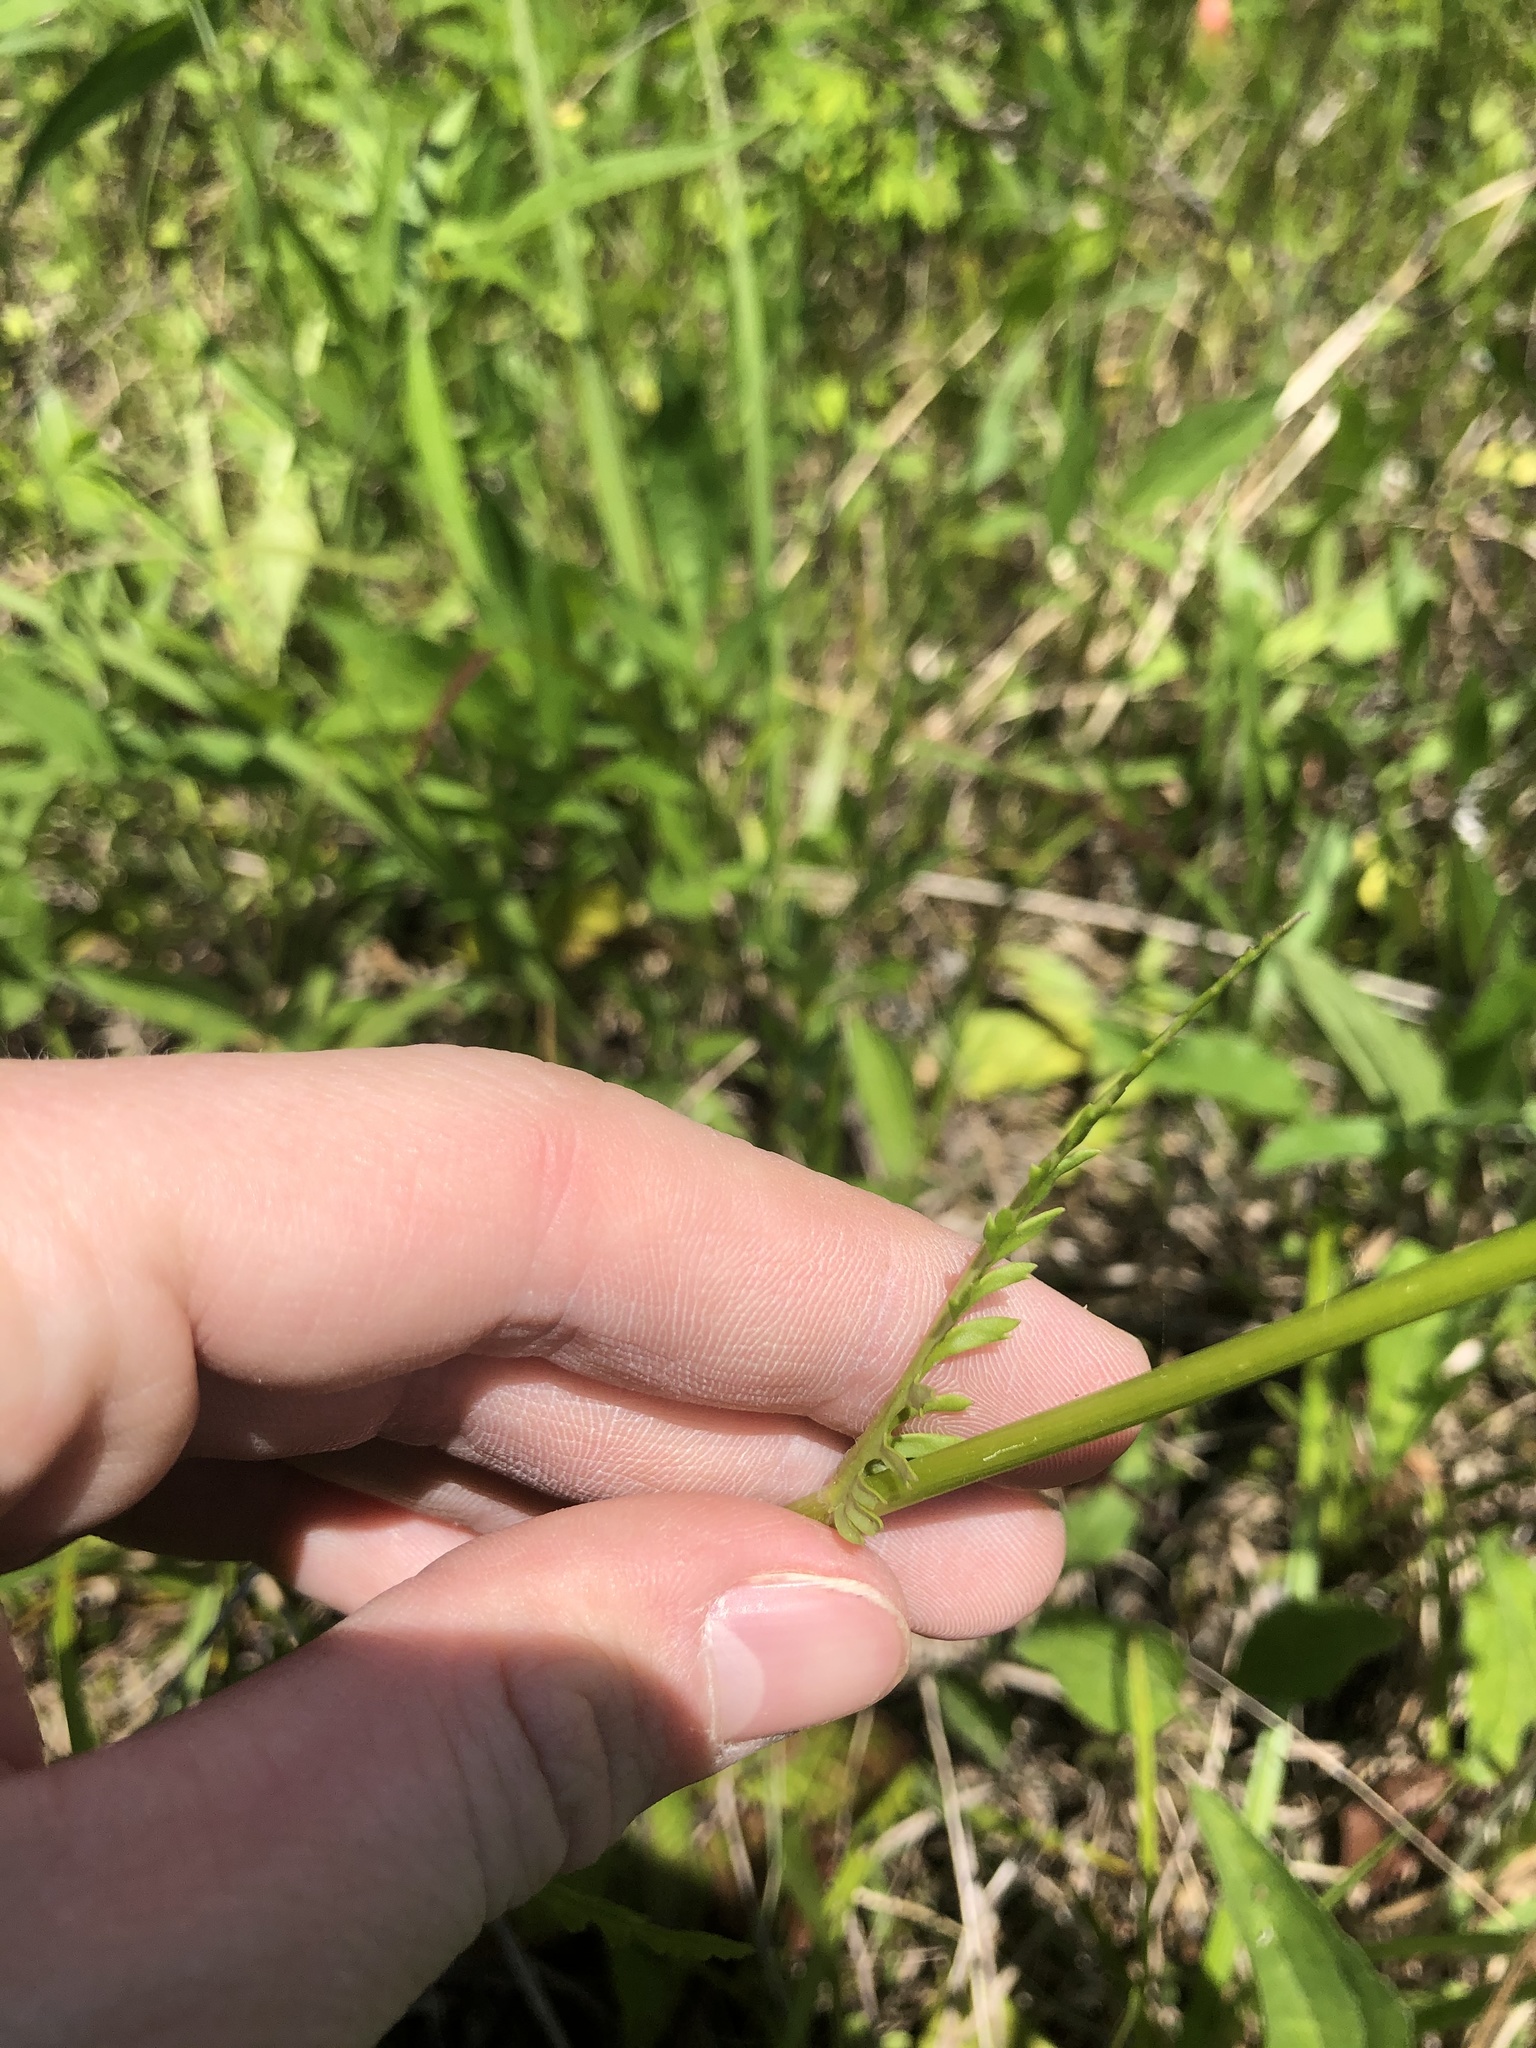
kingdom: Plantae
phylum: Tracheophyta
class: Magnoliopsida
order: Asterales
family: Asteraceae
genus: Packera
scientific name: Packera anonyma
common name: Small ragwort
